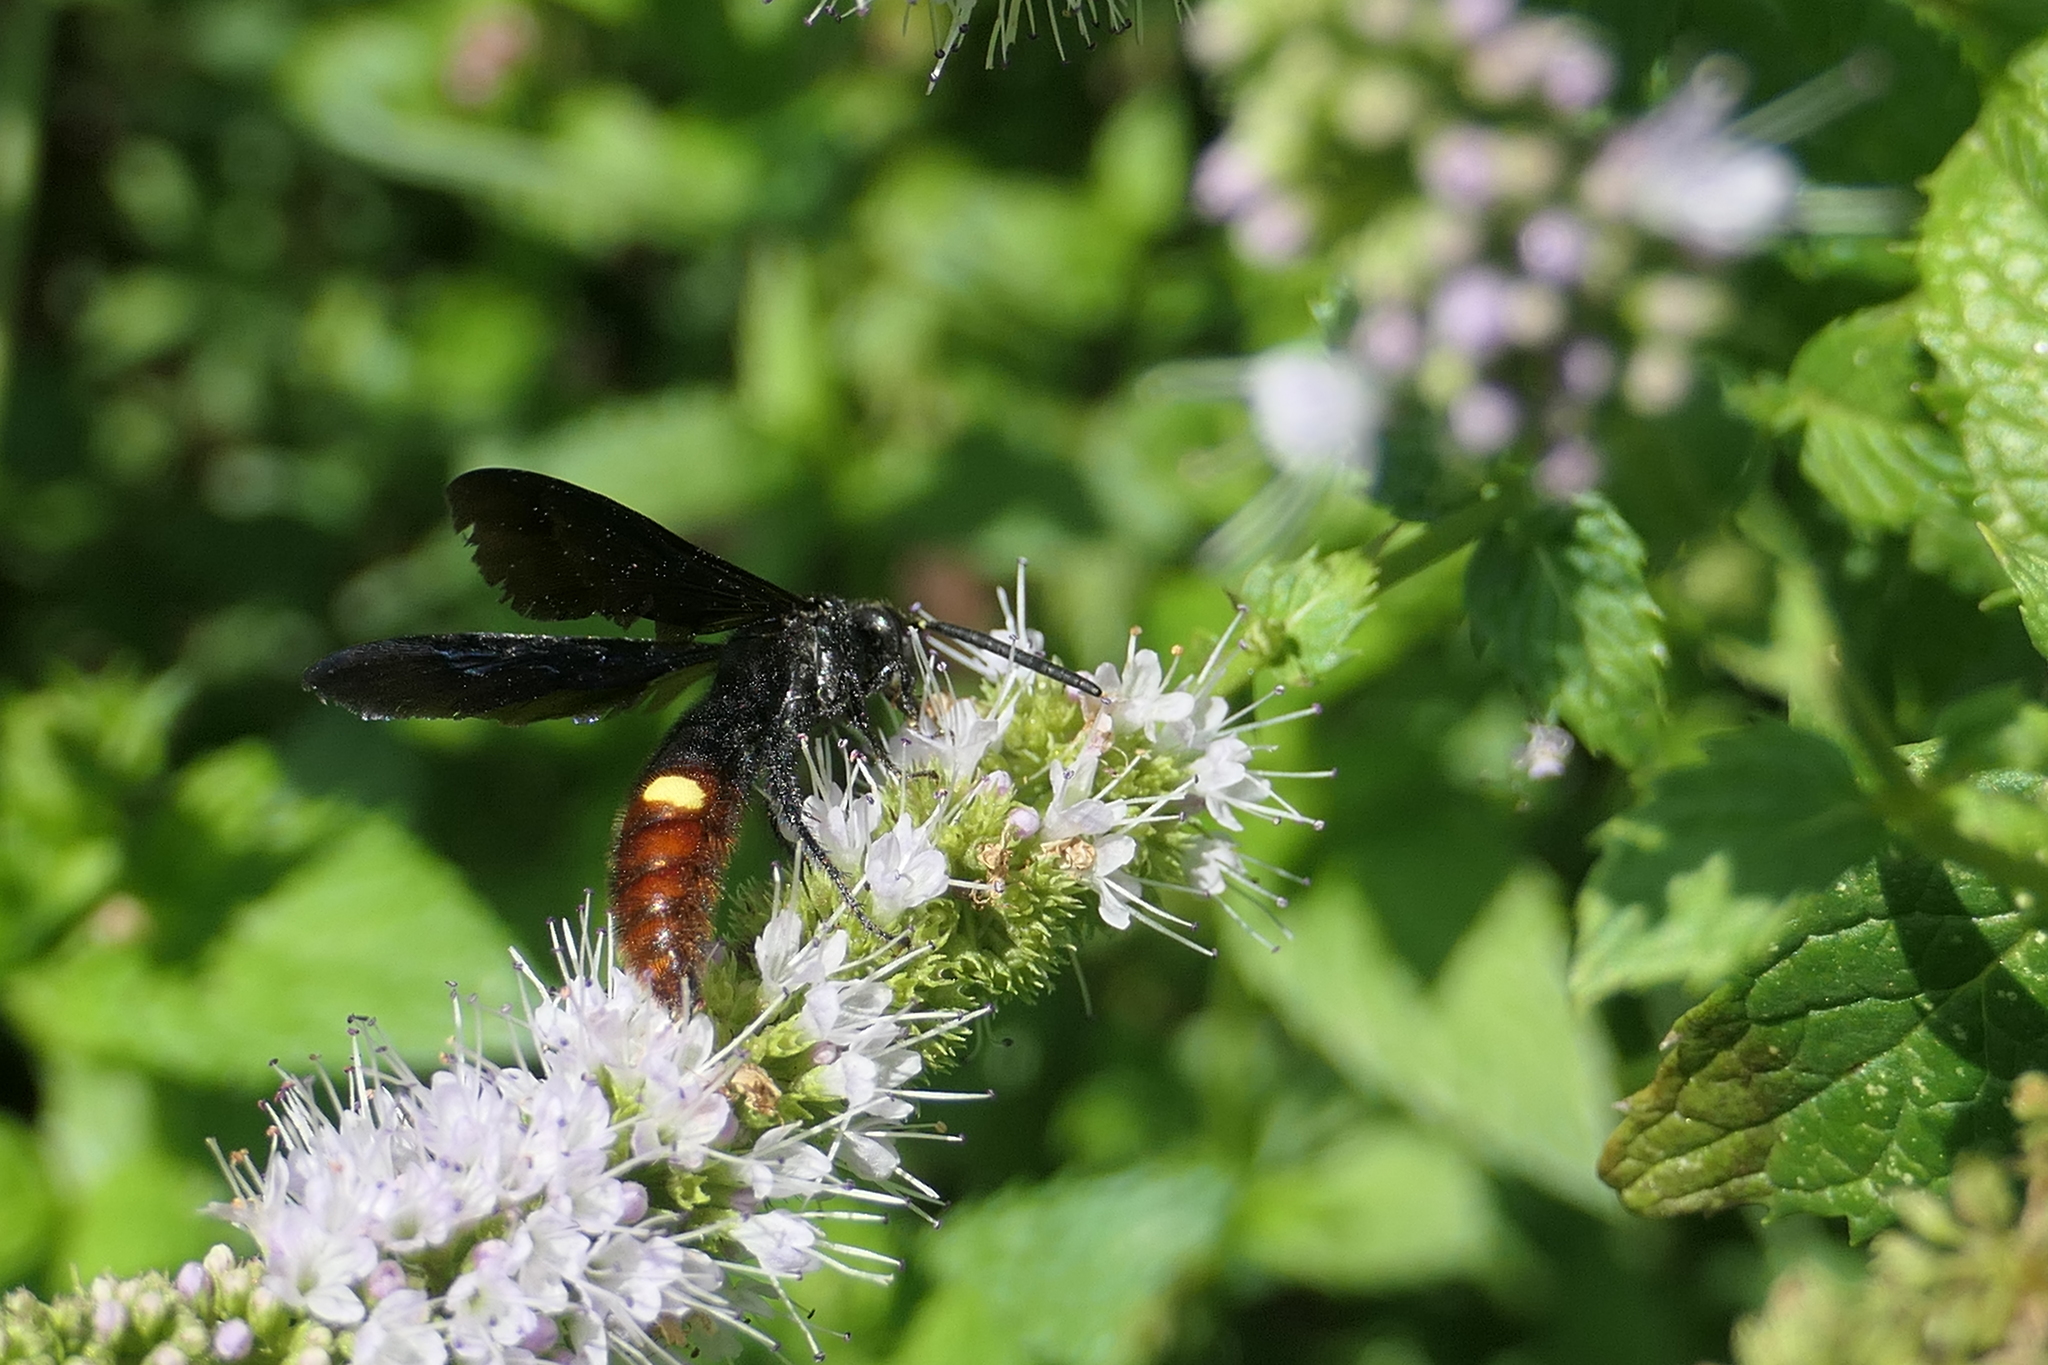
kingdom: Animalia
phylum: Arthropoda
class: Insecta
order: Hymenoptera
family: Scoliidae
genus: Scolia
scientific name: Scolia dubia
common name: Blue-winged scoliid wasp
